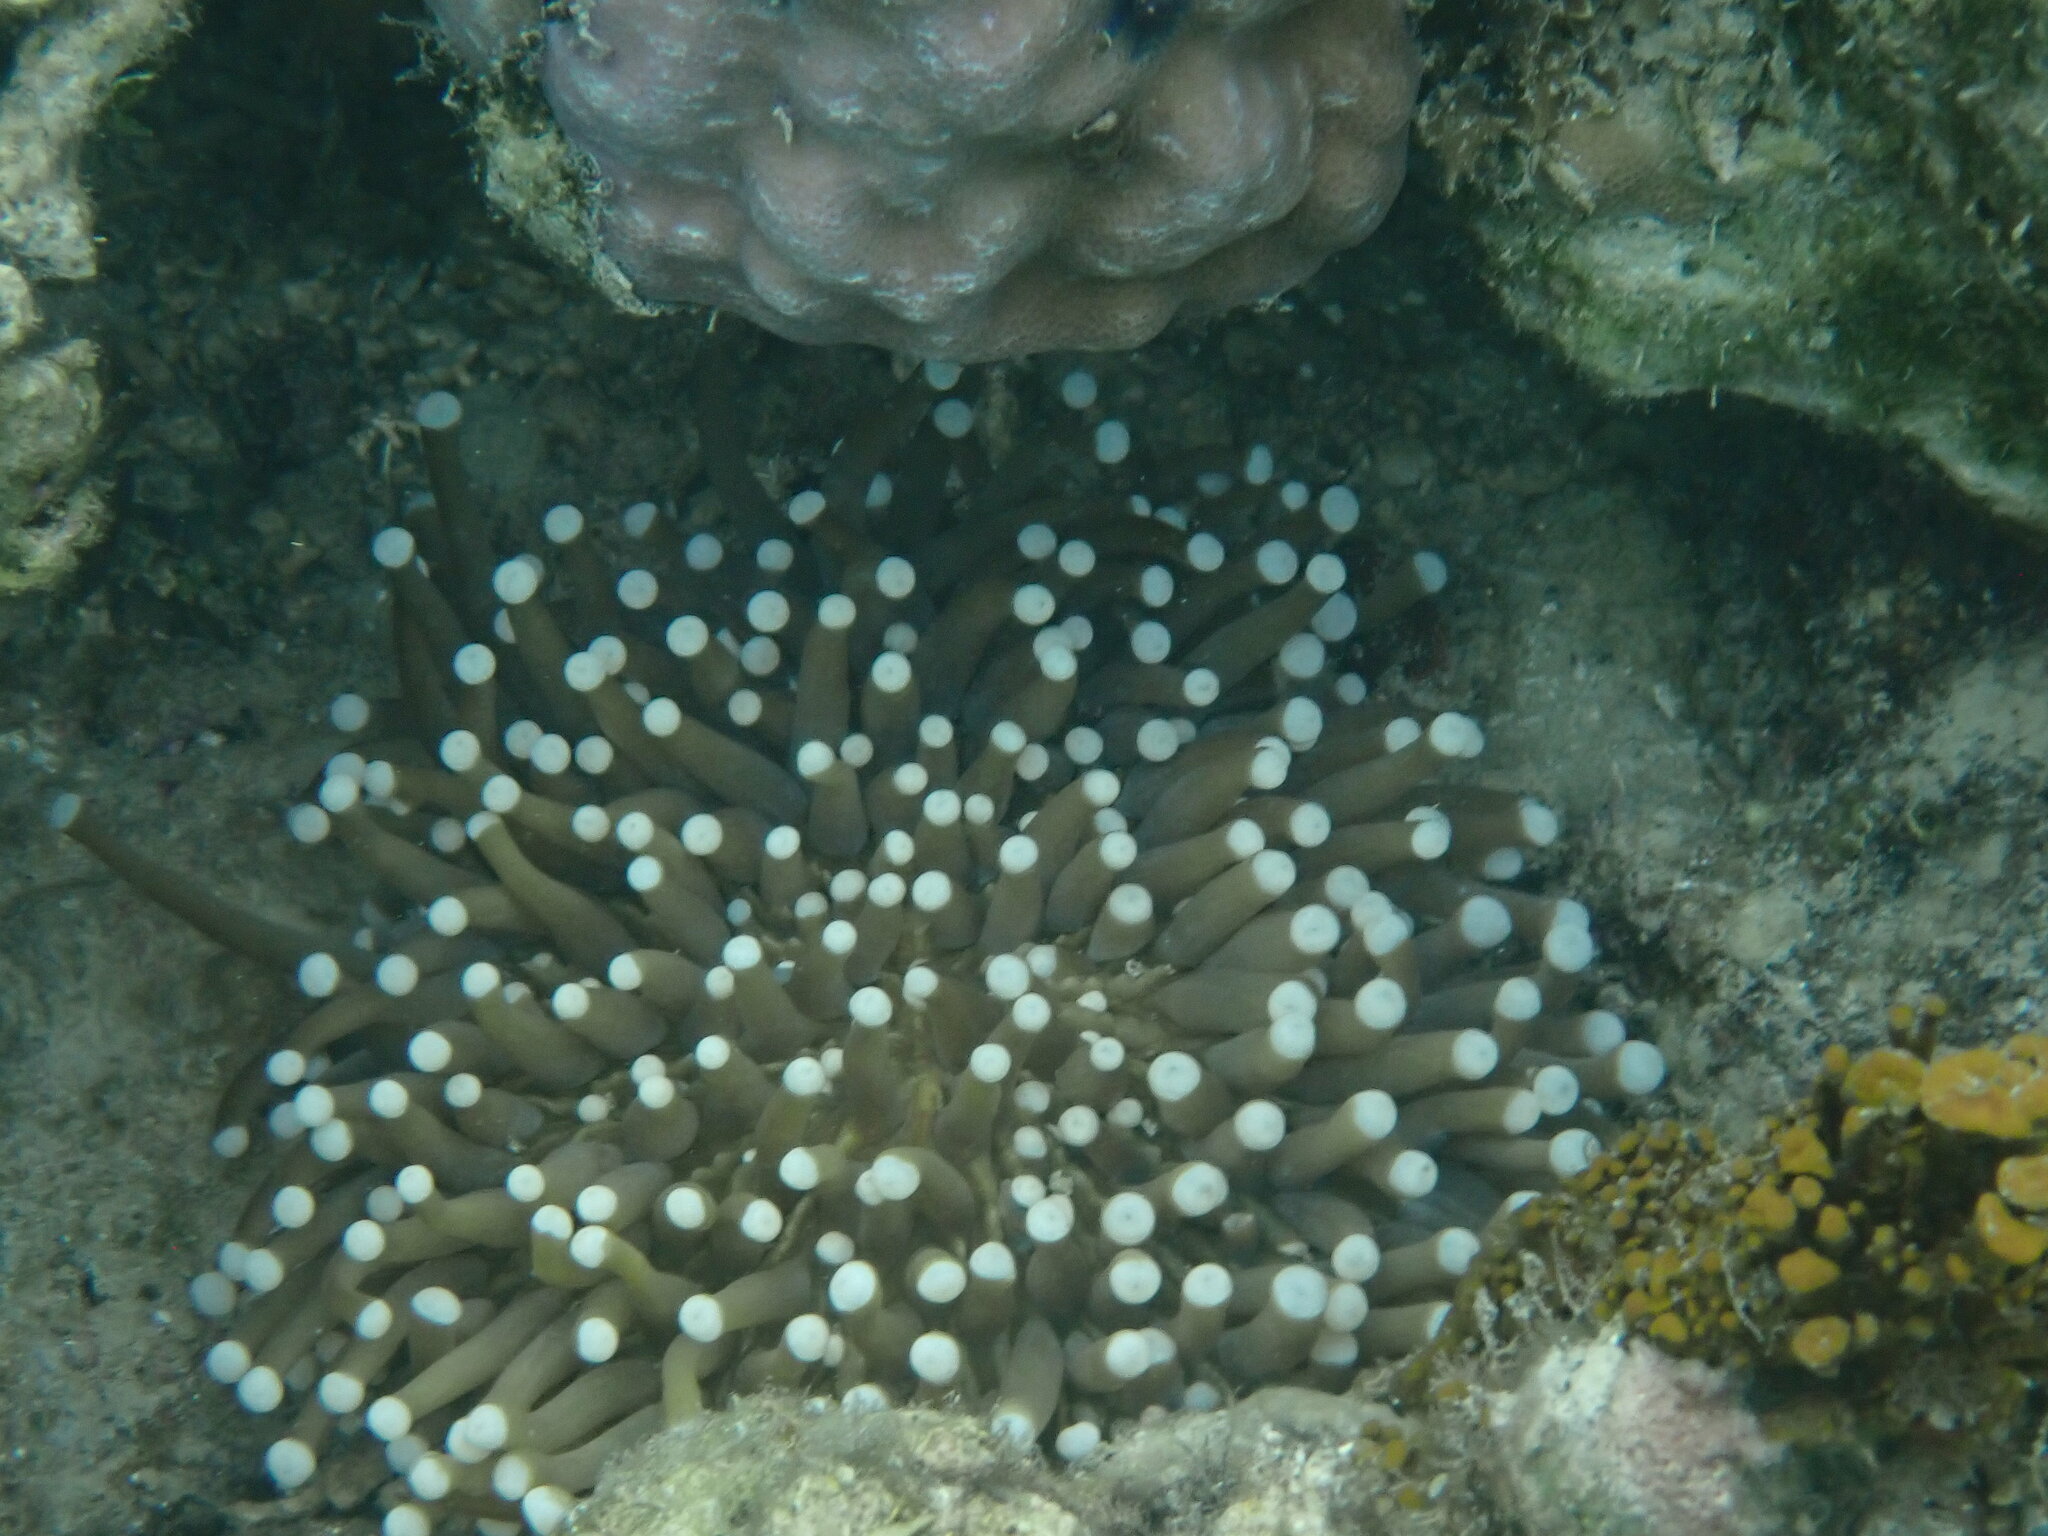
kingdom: Animalia
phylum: Cnidaria
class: Anthozoa
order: Scleractinia
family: Fungiidae
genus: Heliofungia
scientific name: Heliofungia actiniformis
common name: Plate coral
